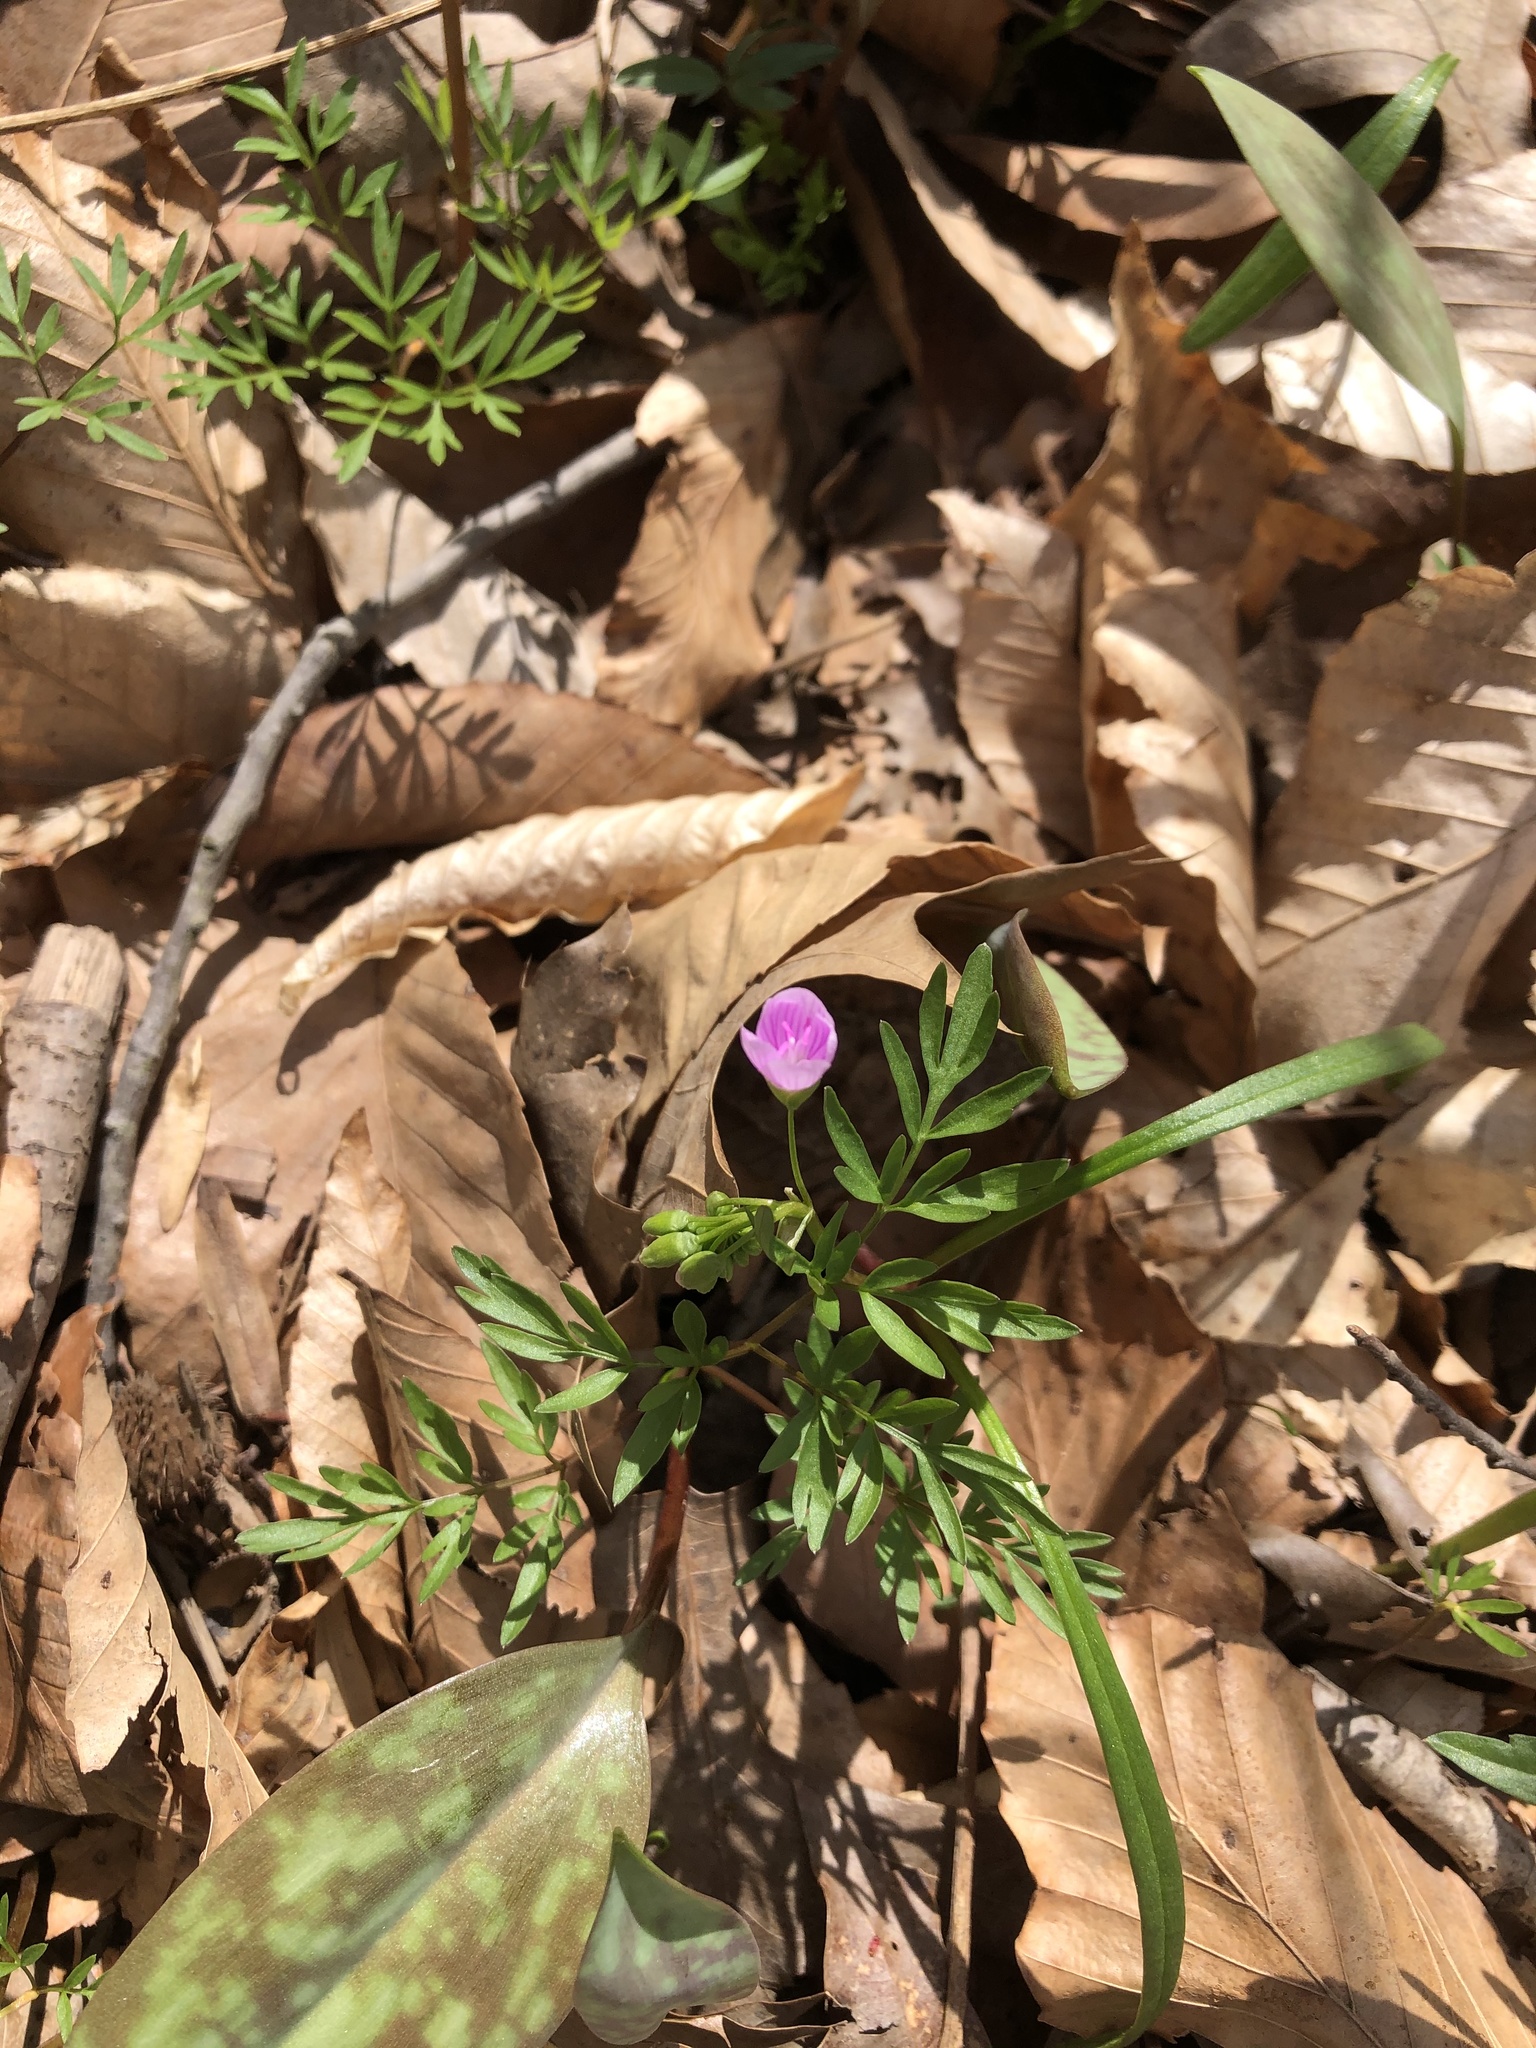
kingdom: Plantae
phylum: Tracheophyta
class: Magnoliopsida
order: Caryophyllales
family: Montiaceae
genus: Claytonia
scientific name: Claytonia virginica
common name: Virginia springbeauty
